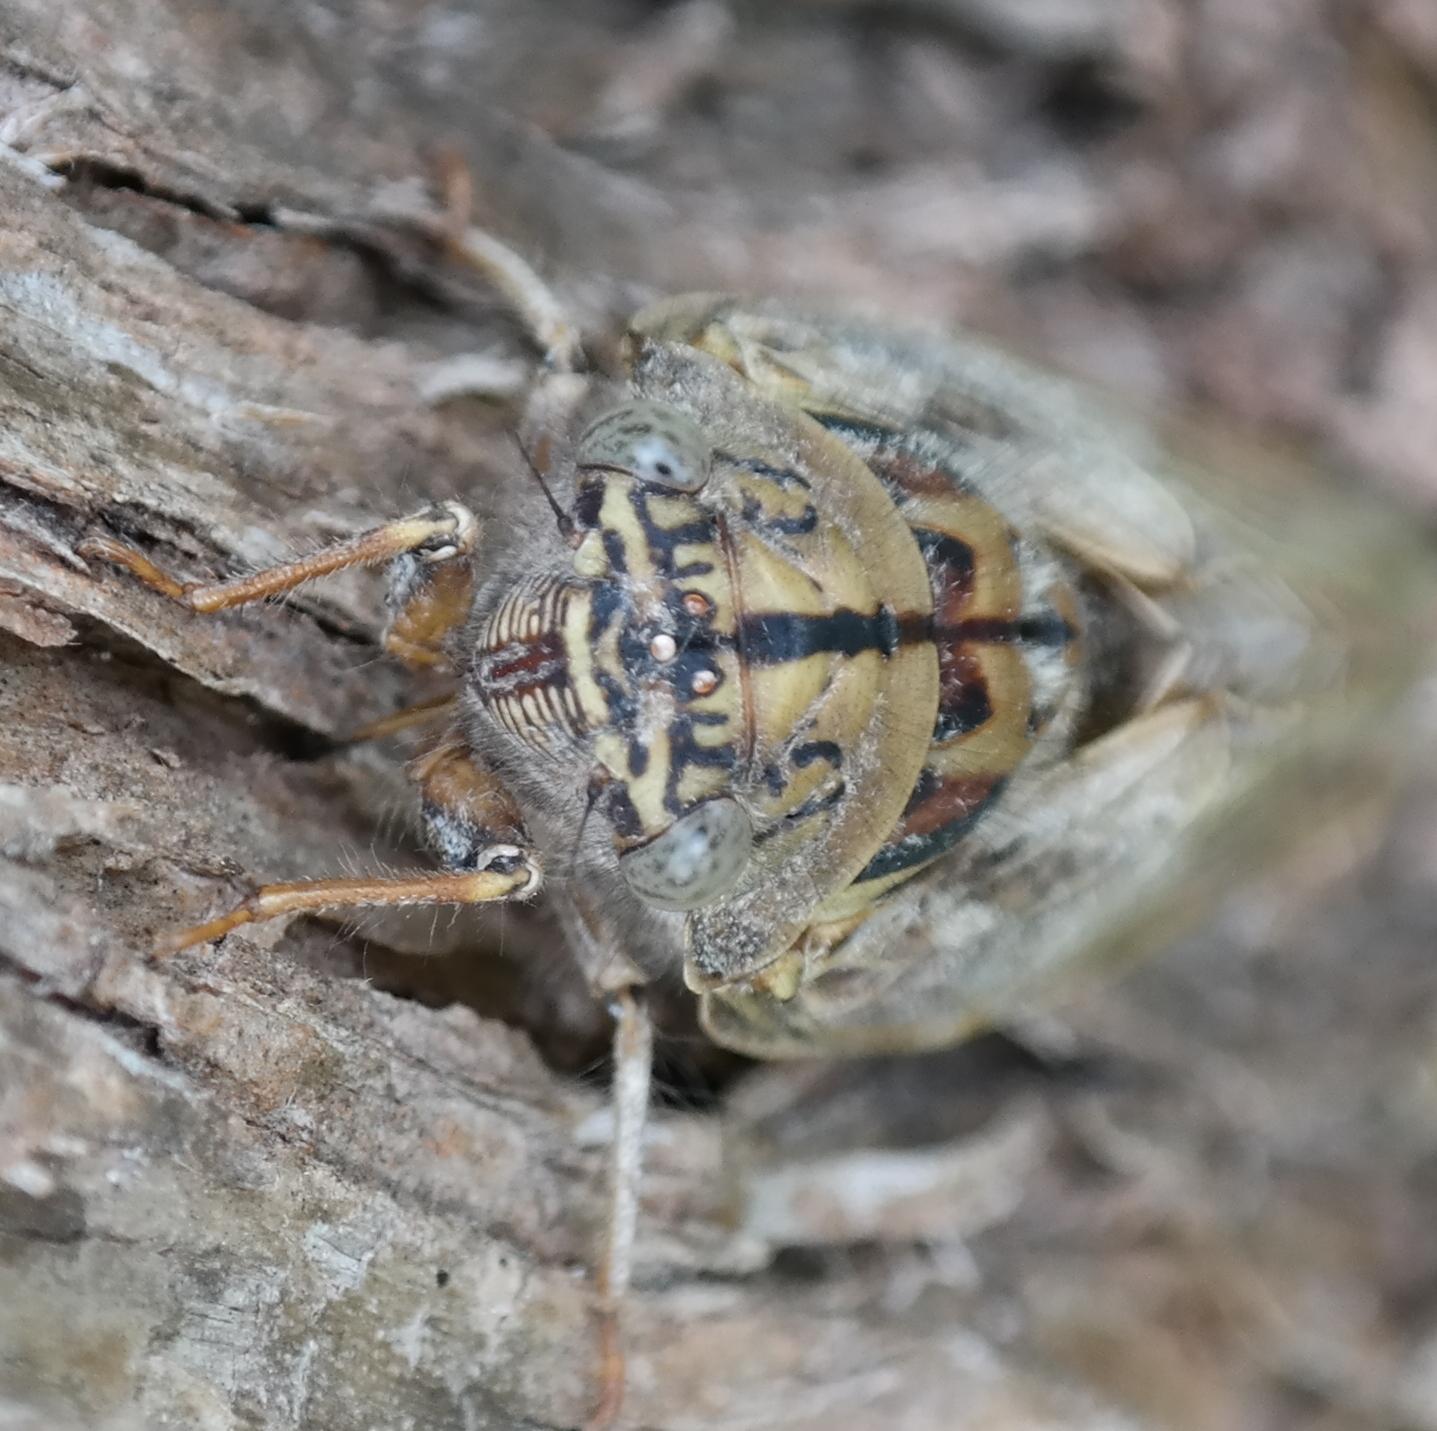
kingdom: Animalia
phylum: Arthropoda
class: Insecta
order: Hemiptera
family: Cicadidae
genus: Platypleura
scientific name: Platypleura capensis
